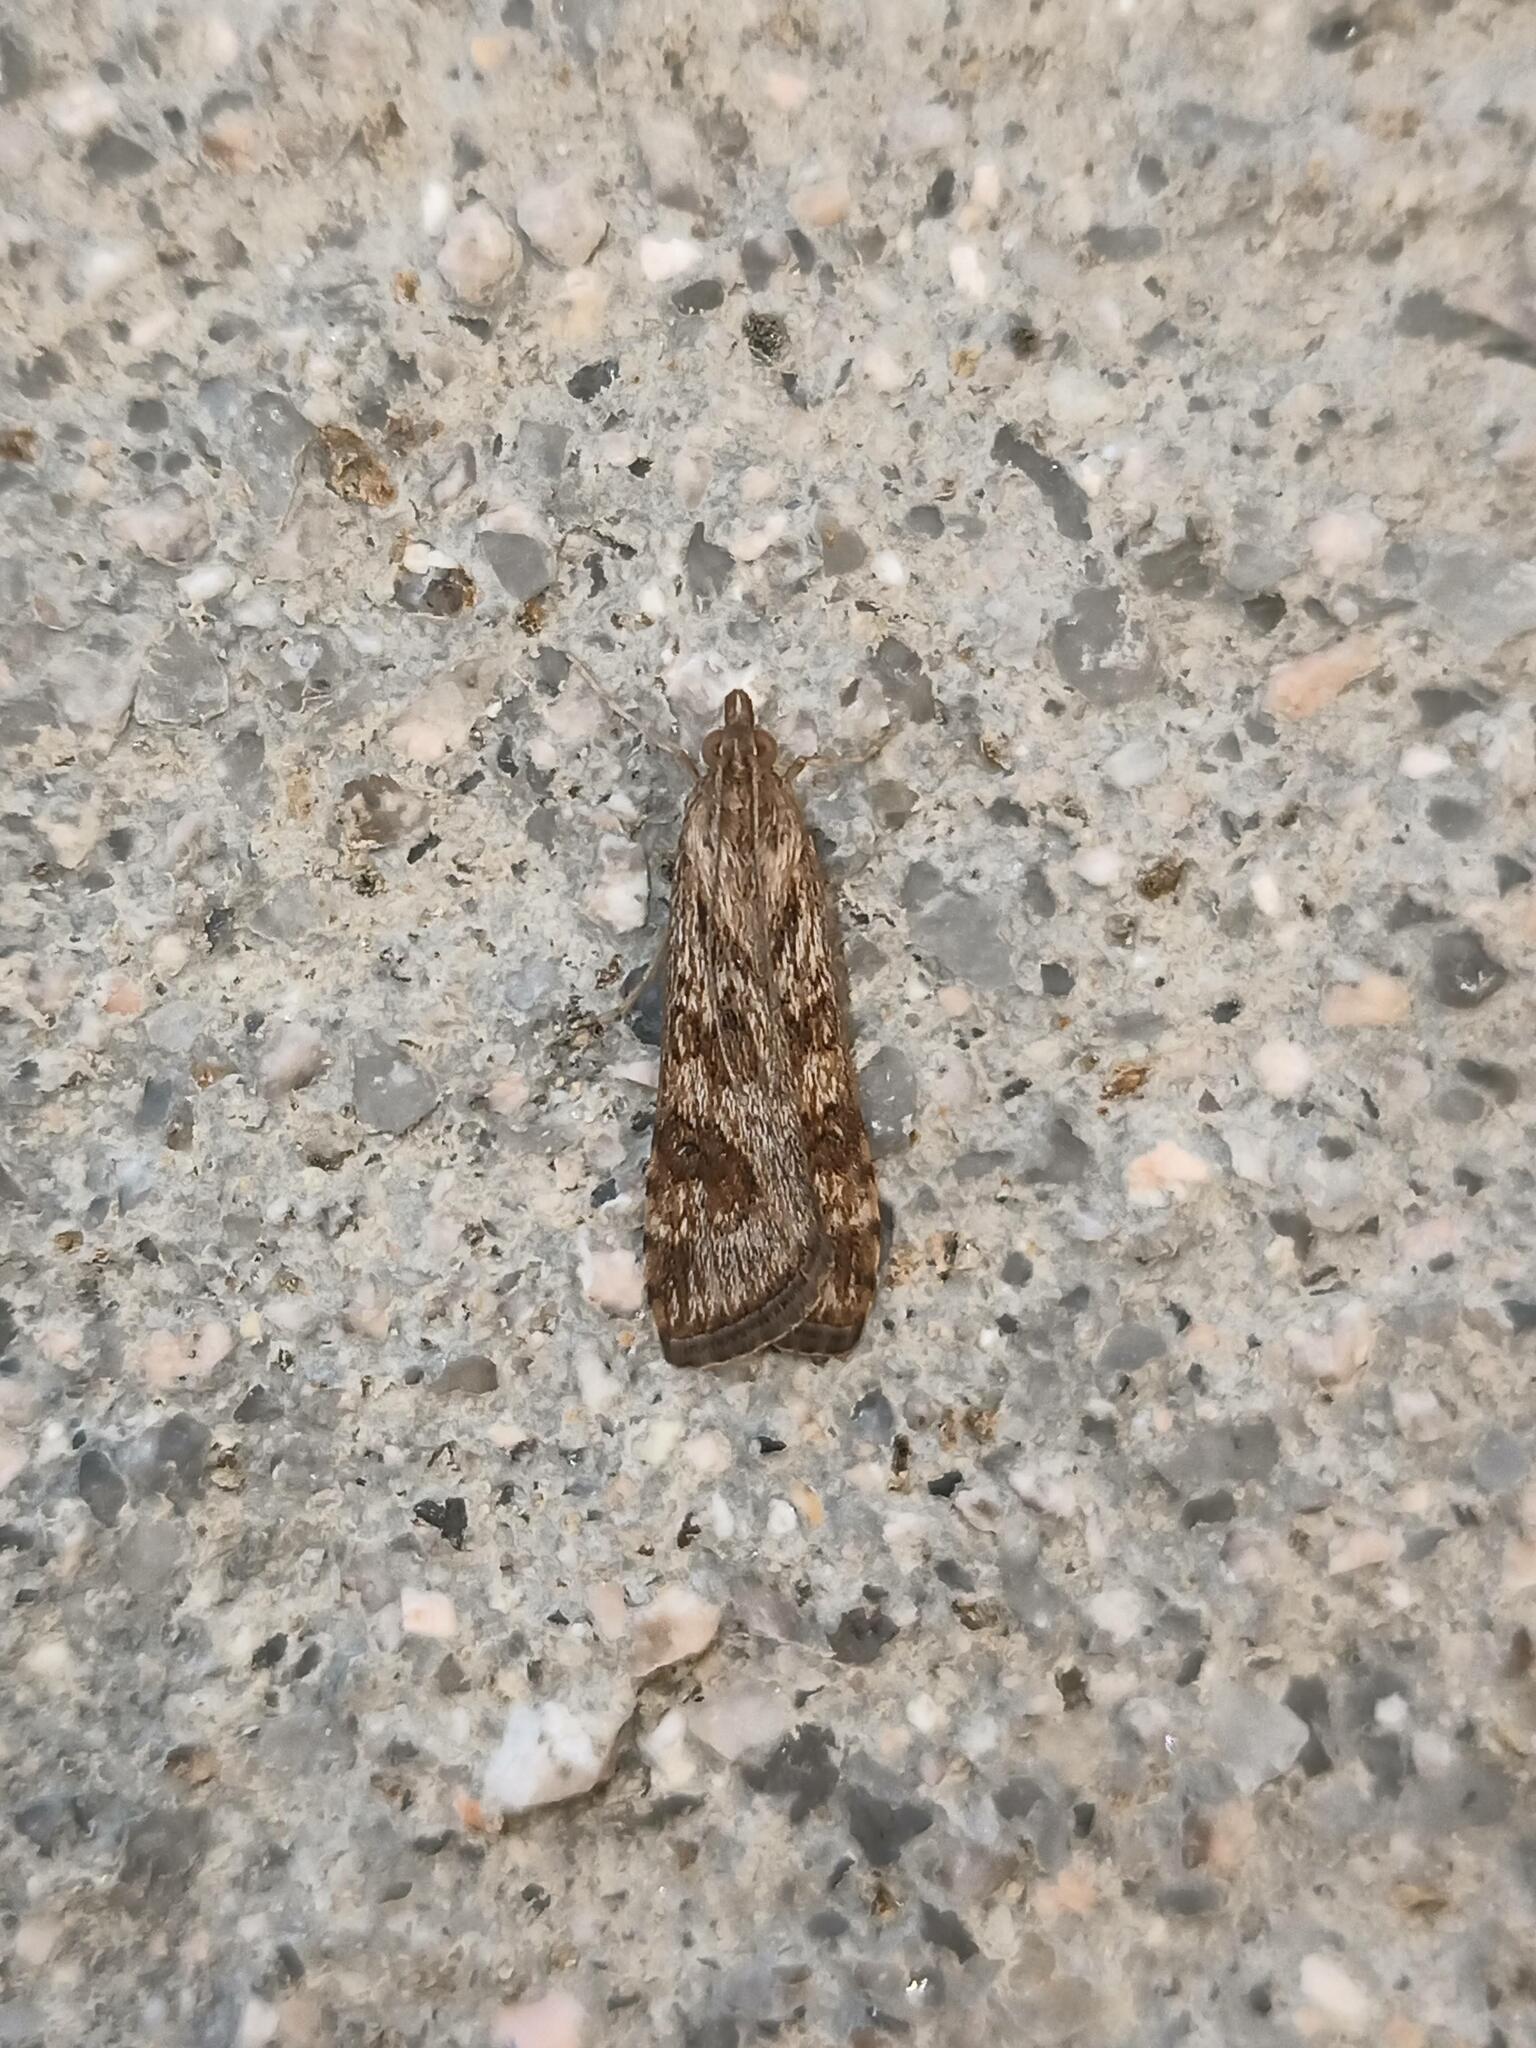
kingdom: Animalia
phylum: Arthropoda
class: Insecta
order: Lepidoptera
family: Crambidae
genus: Nomophila
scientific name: Nomophila noctuella
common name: Rush veneer
